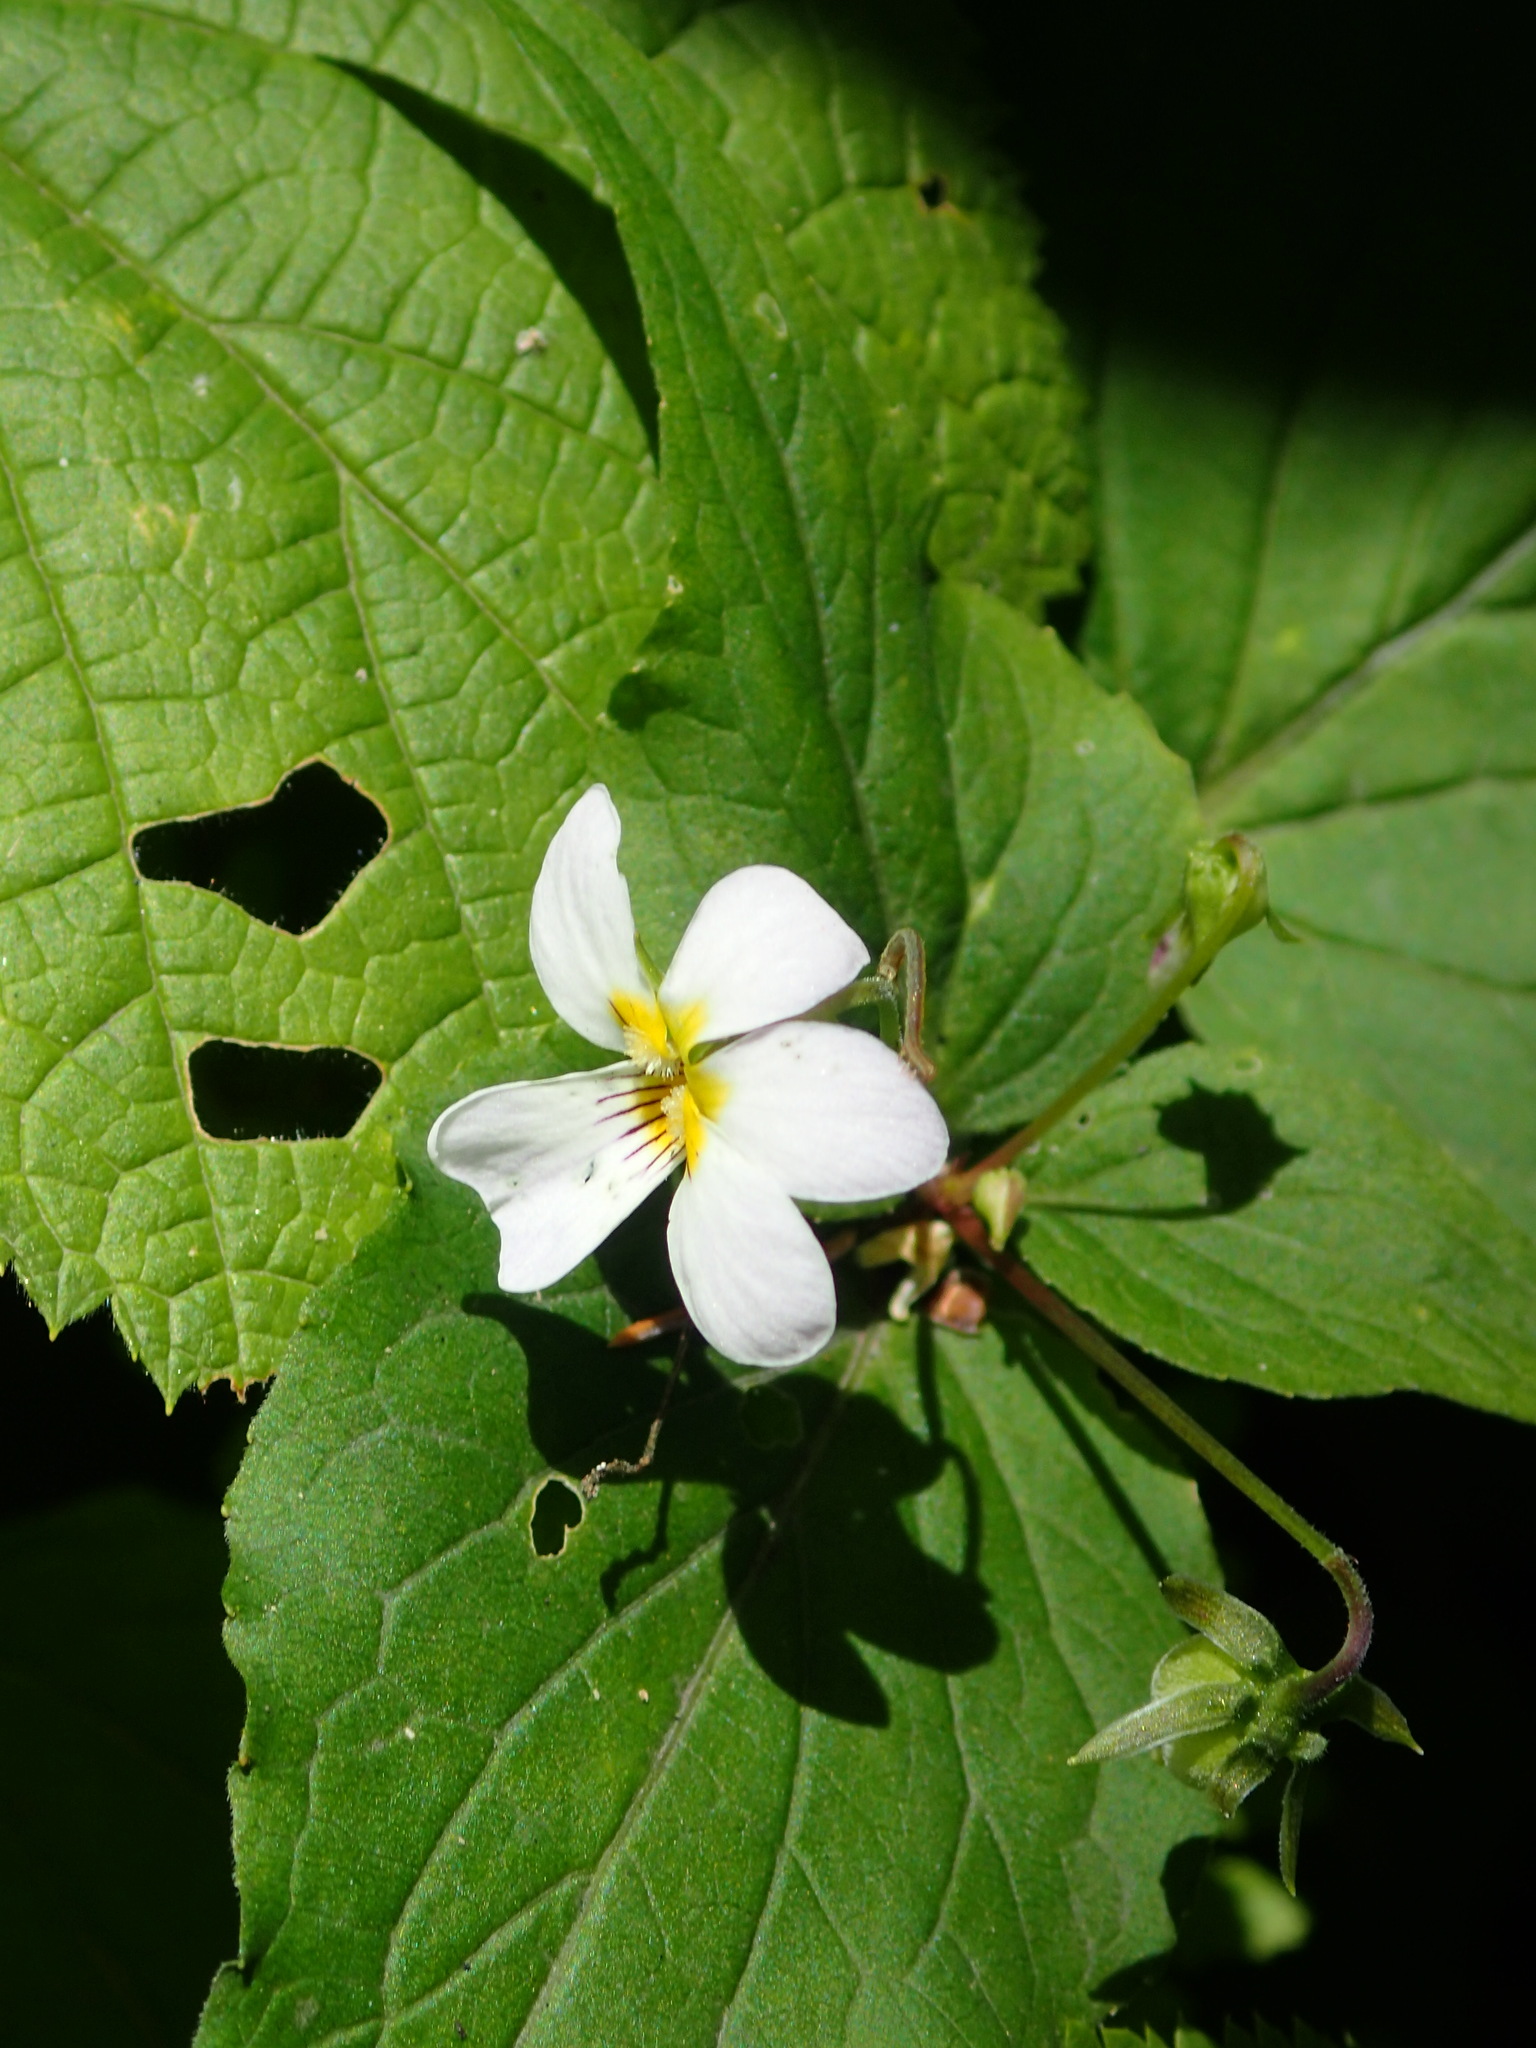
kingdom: Plantae
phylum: Tracheophyta
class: Magnoliopsida
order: Malpighiales
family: Violaceae
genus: Viola
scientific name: Viola canadensis
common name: Canada violet
